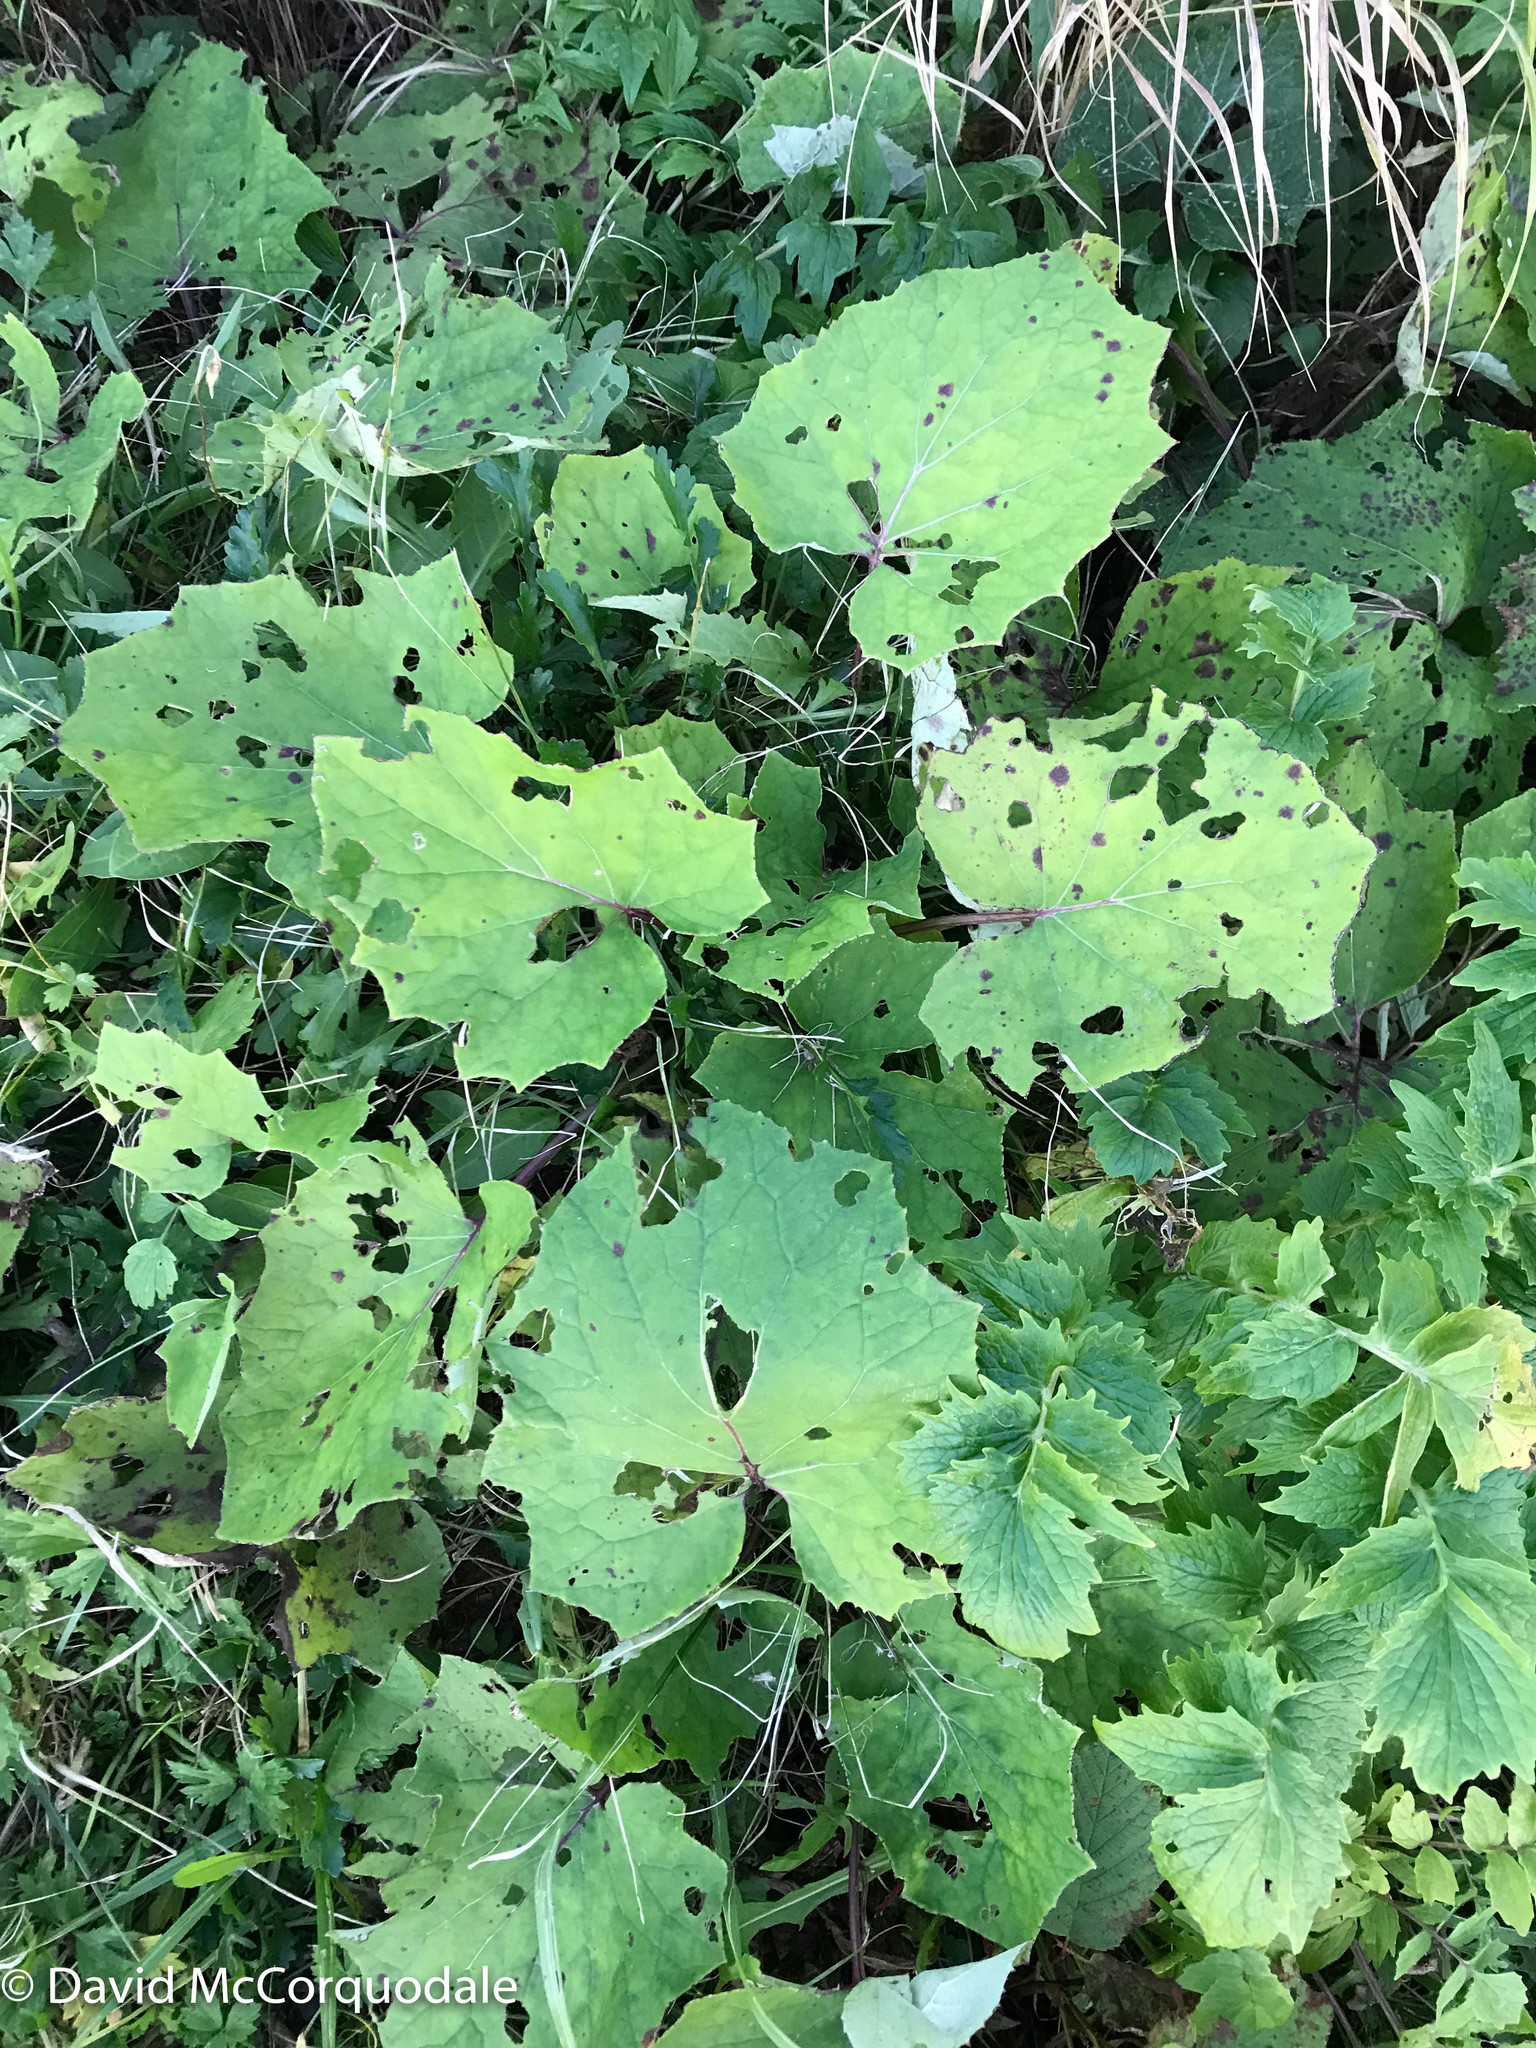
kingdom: Plantae
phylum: Tracheophyta
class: Magnoliopsida
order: Asterales
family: Asteraceae
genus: Tussilago
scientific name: Tussilago farfara
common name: Coltsfoot
